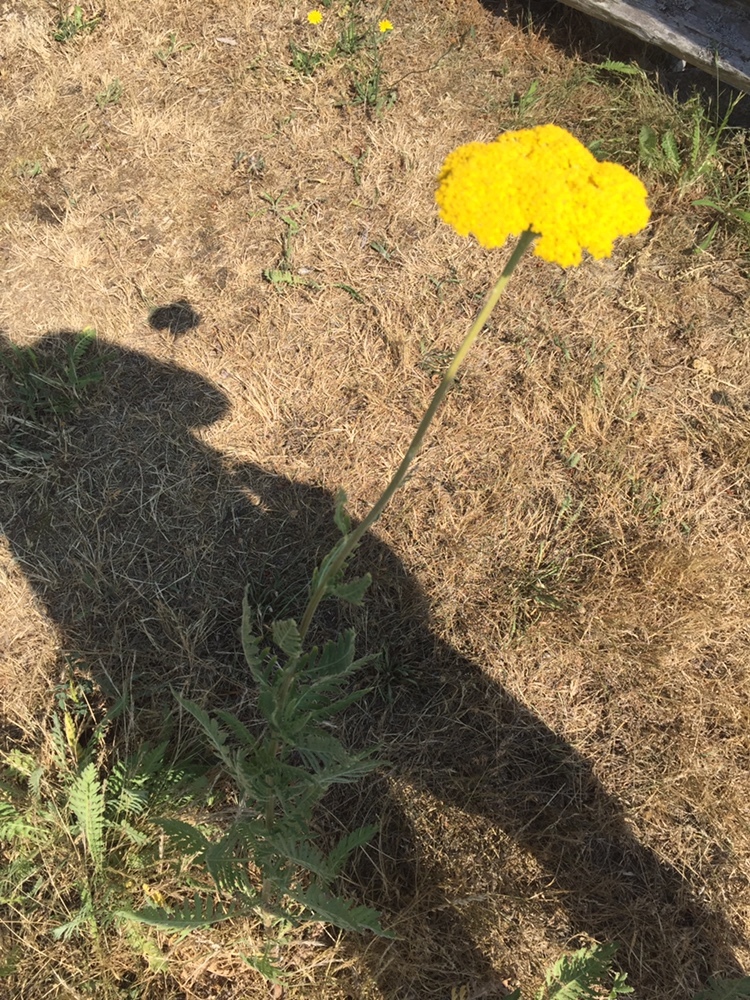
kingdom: Plantae
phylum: Tracheophyta
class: Magnoliopsida
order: Asterales
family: Asteraceae
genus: Achillea
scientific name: Achillea filipendulina
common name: Fernleaf yarrow
